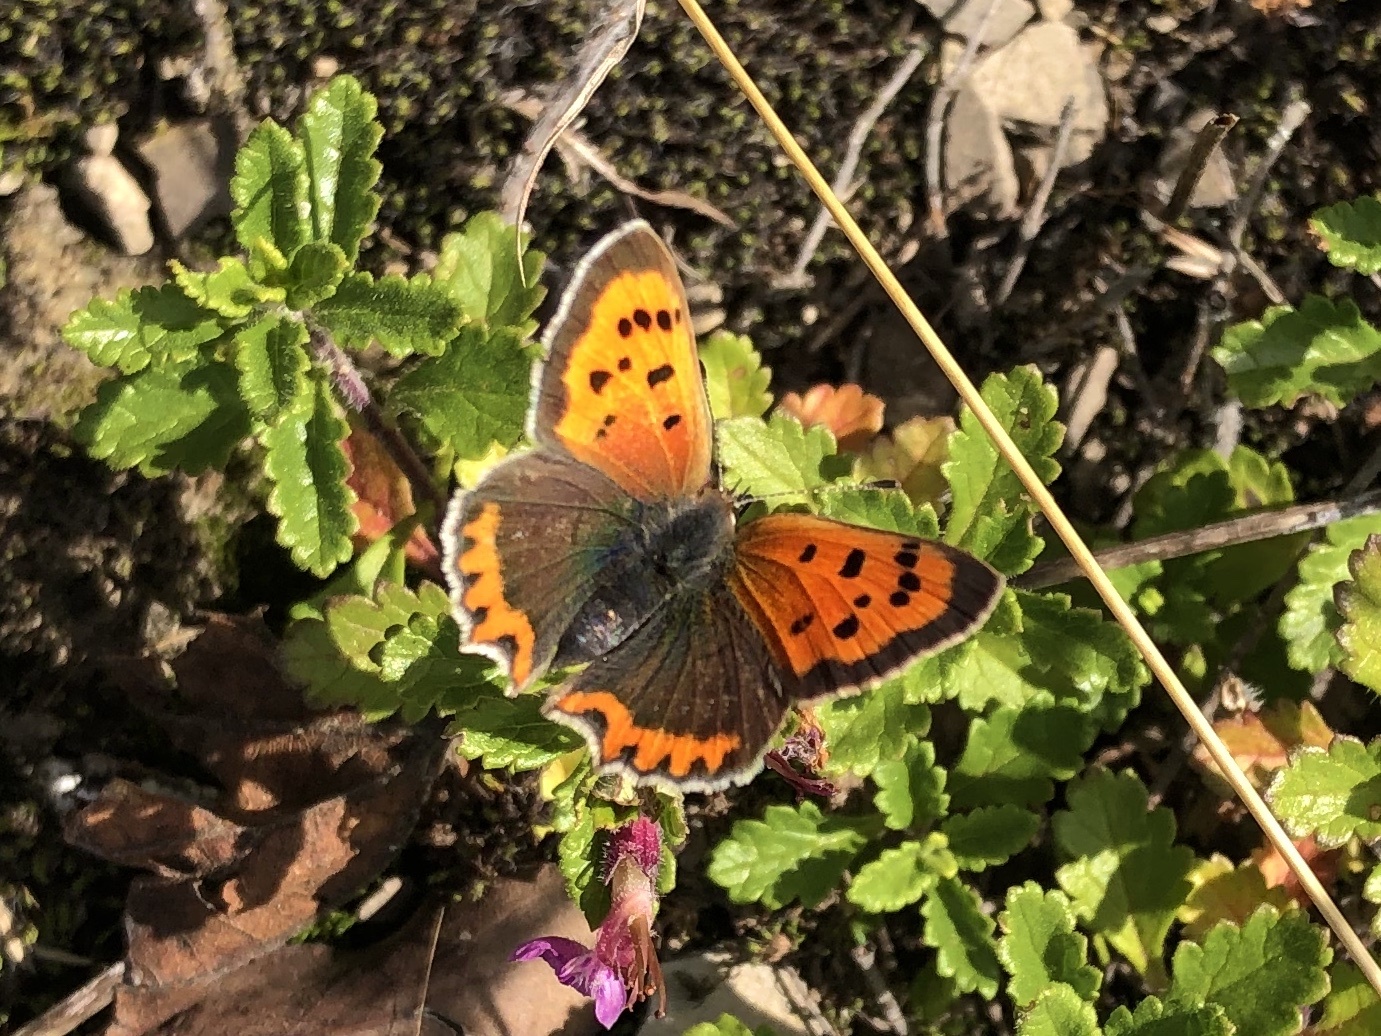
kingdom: Animalia
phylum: Arthropoda
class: Insecta
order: Lepidoptera
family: Lycaenidae
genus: Lycaena
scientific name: Lycaena phlaeas
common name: Small copper
